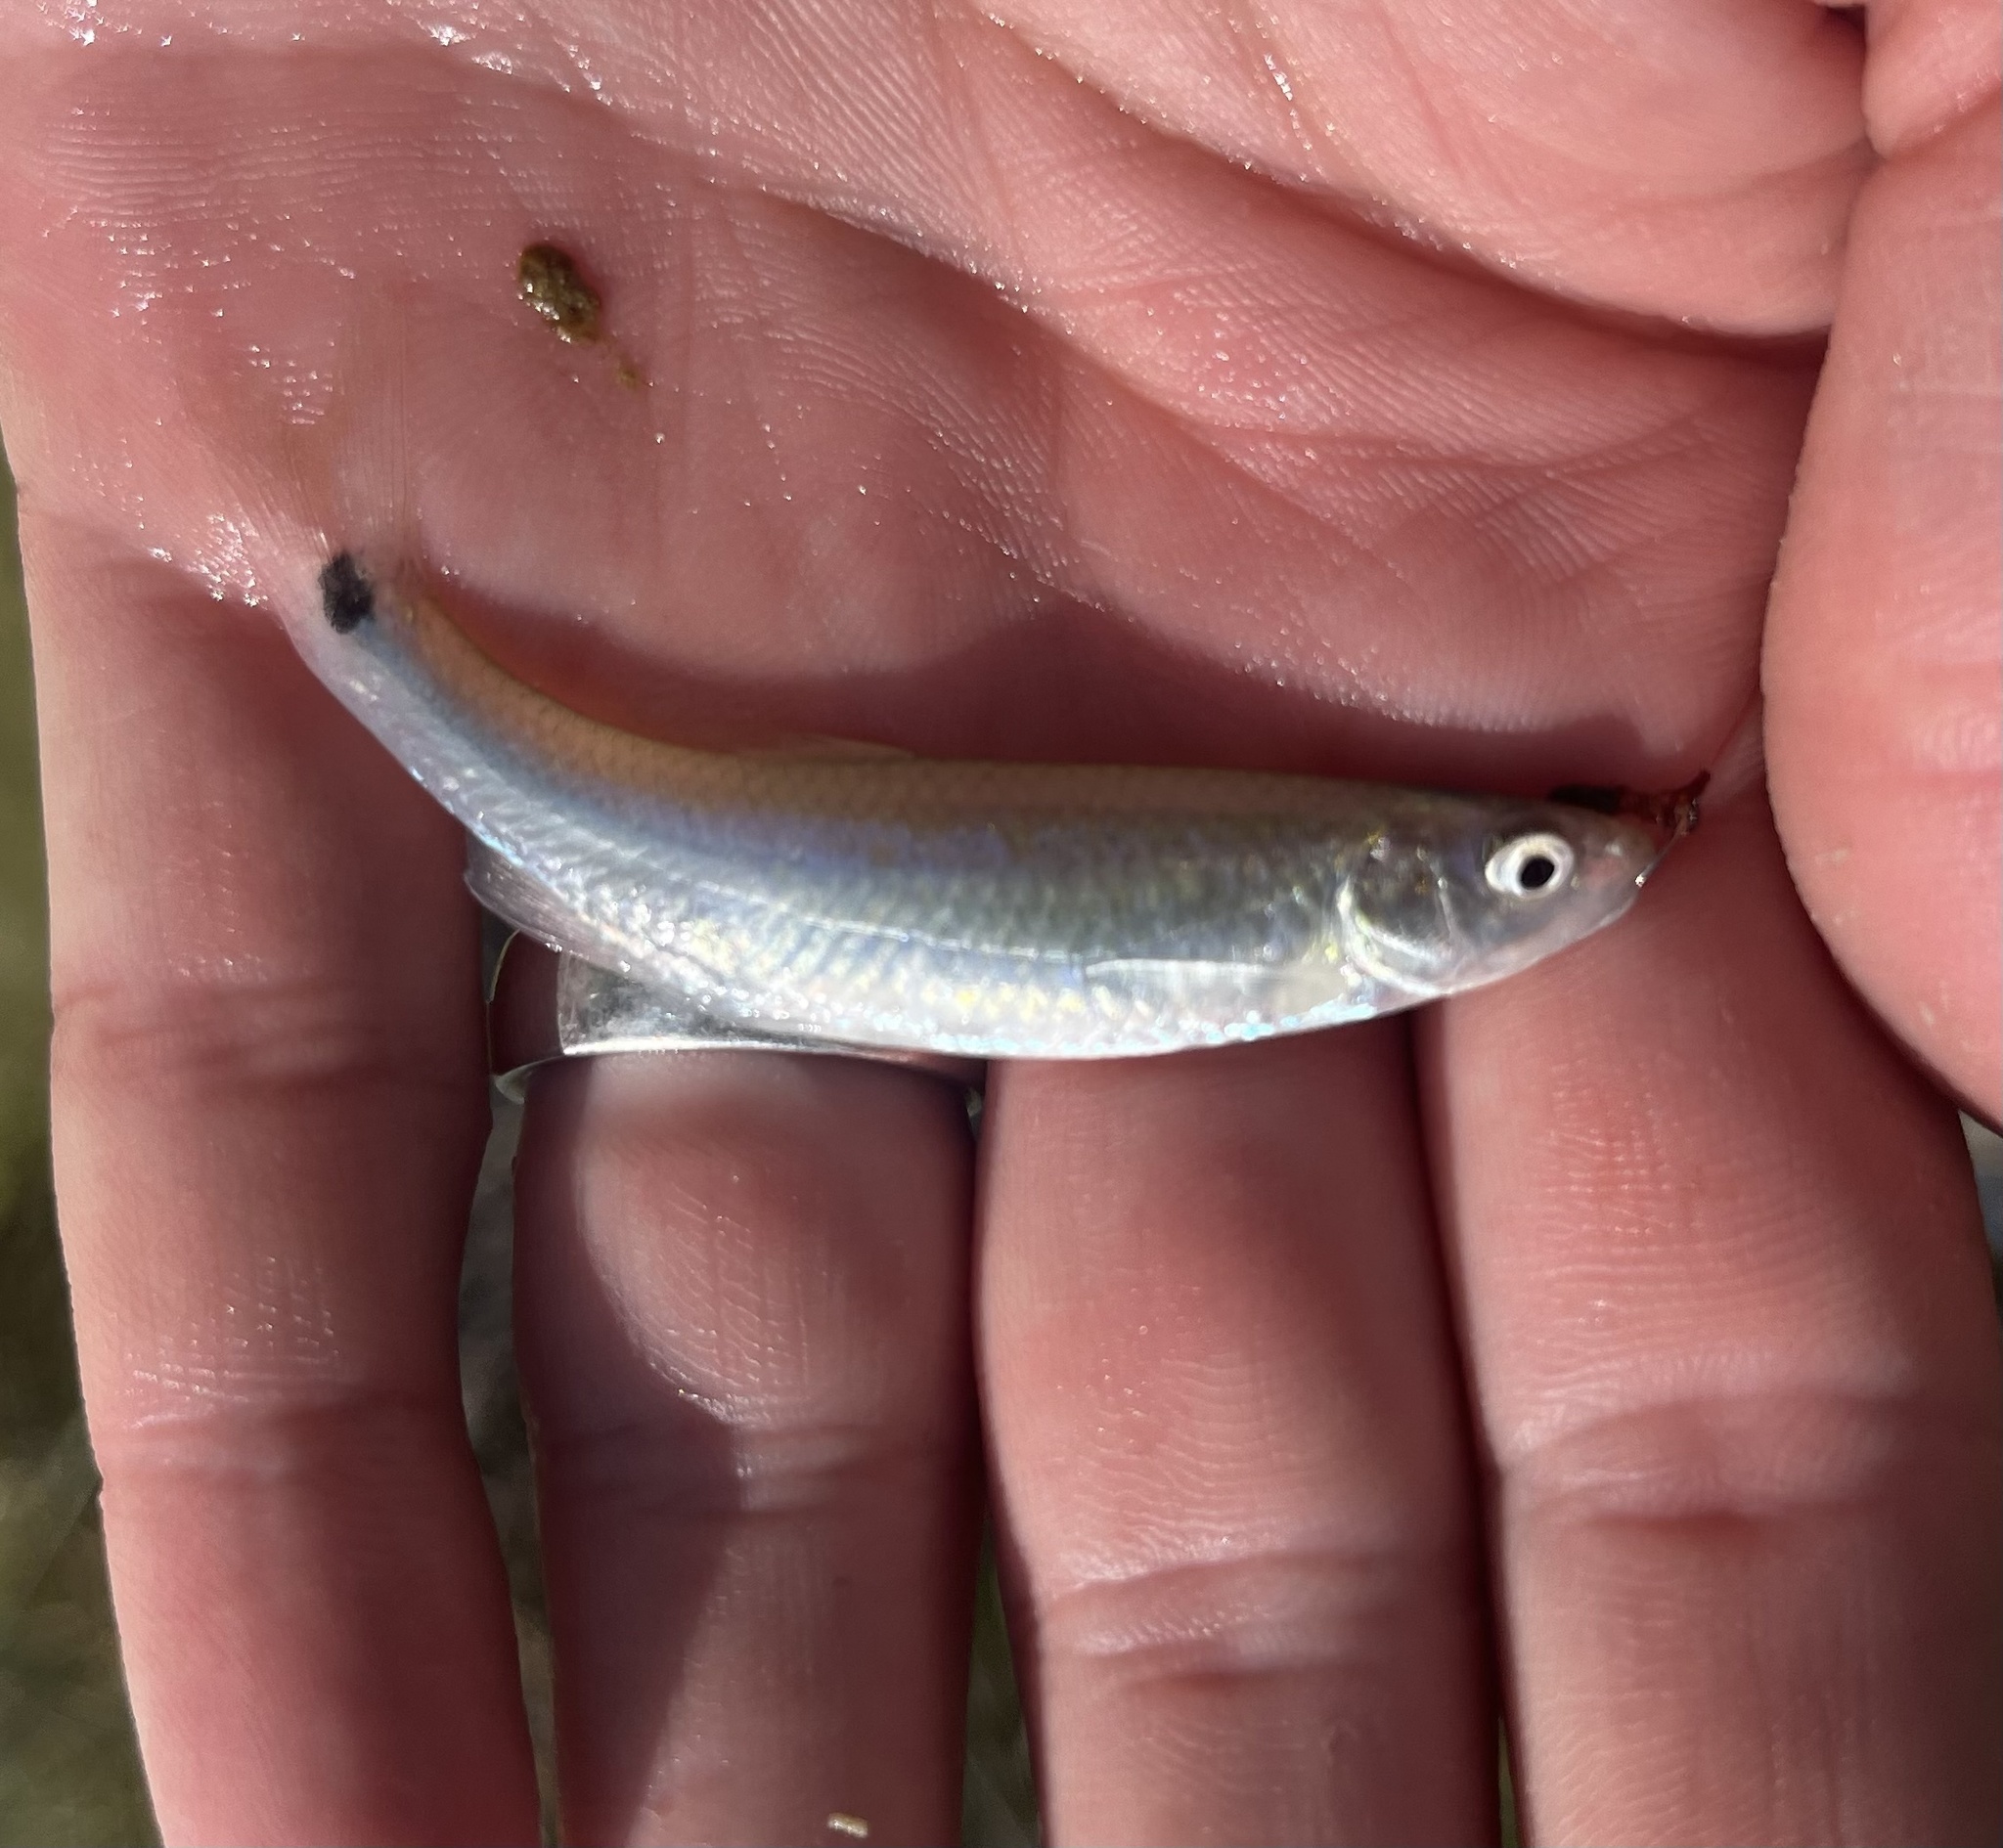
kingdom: Animalia
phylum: Chordata
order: Cypriniformes
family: Cyprinidae
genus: Cyprinella
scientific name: Cyprinella venusta
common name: Blacktail shiner
